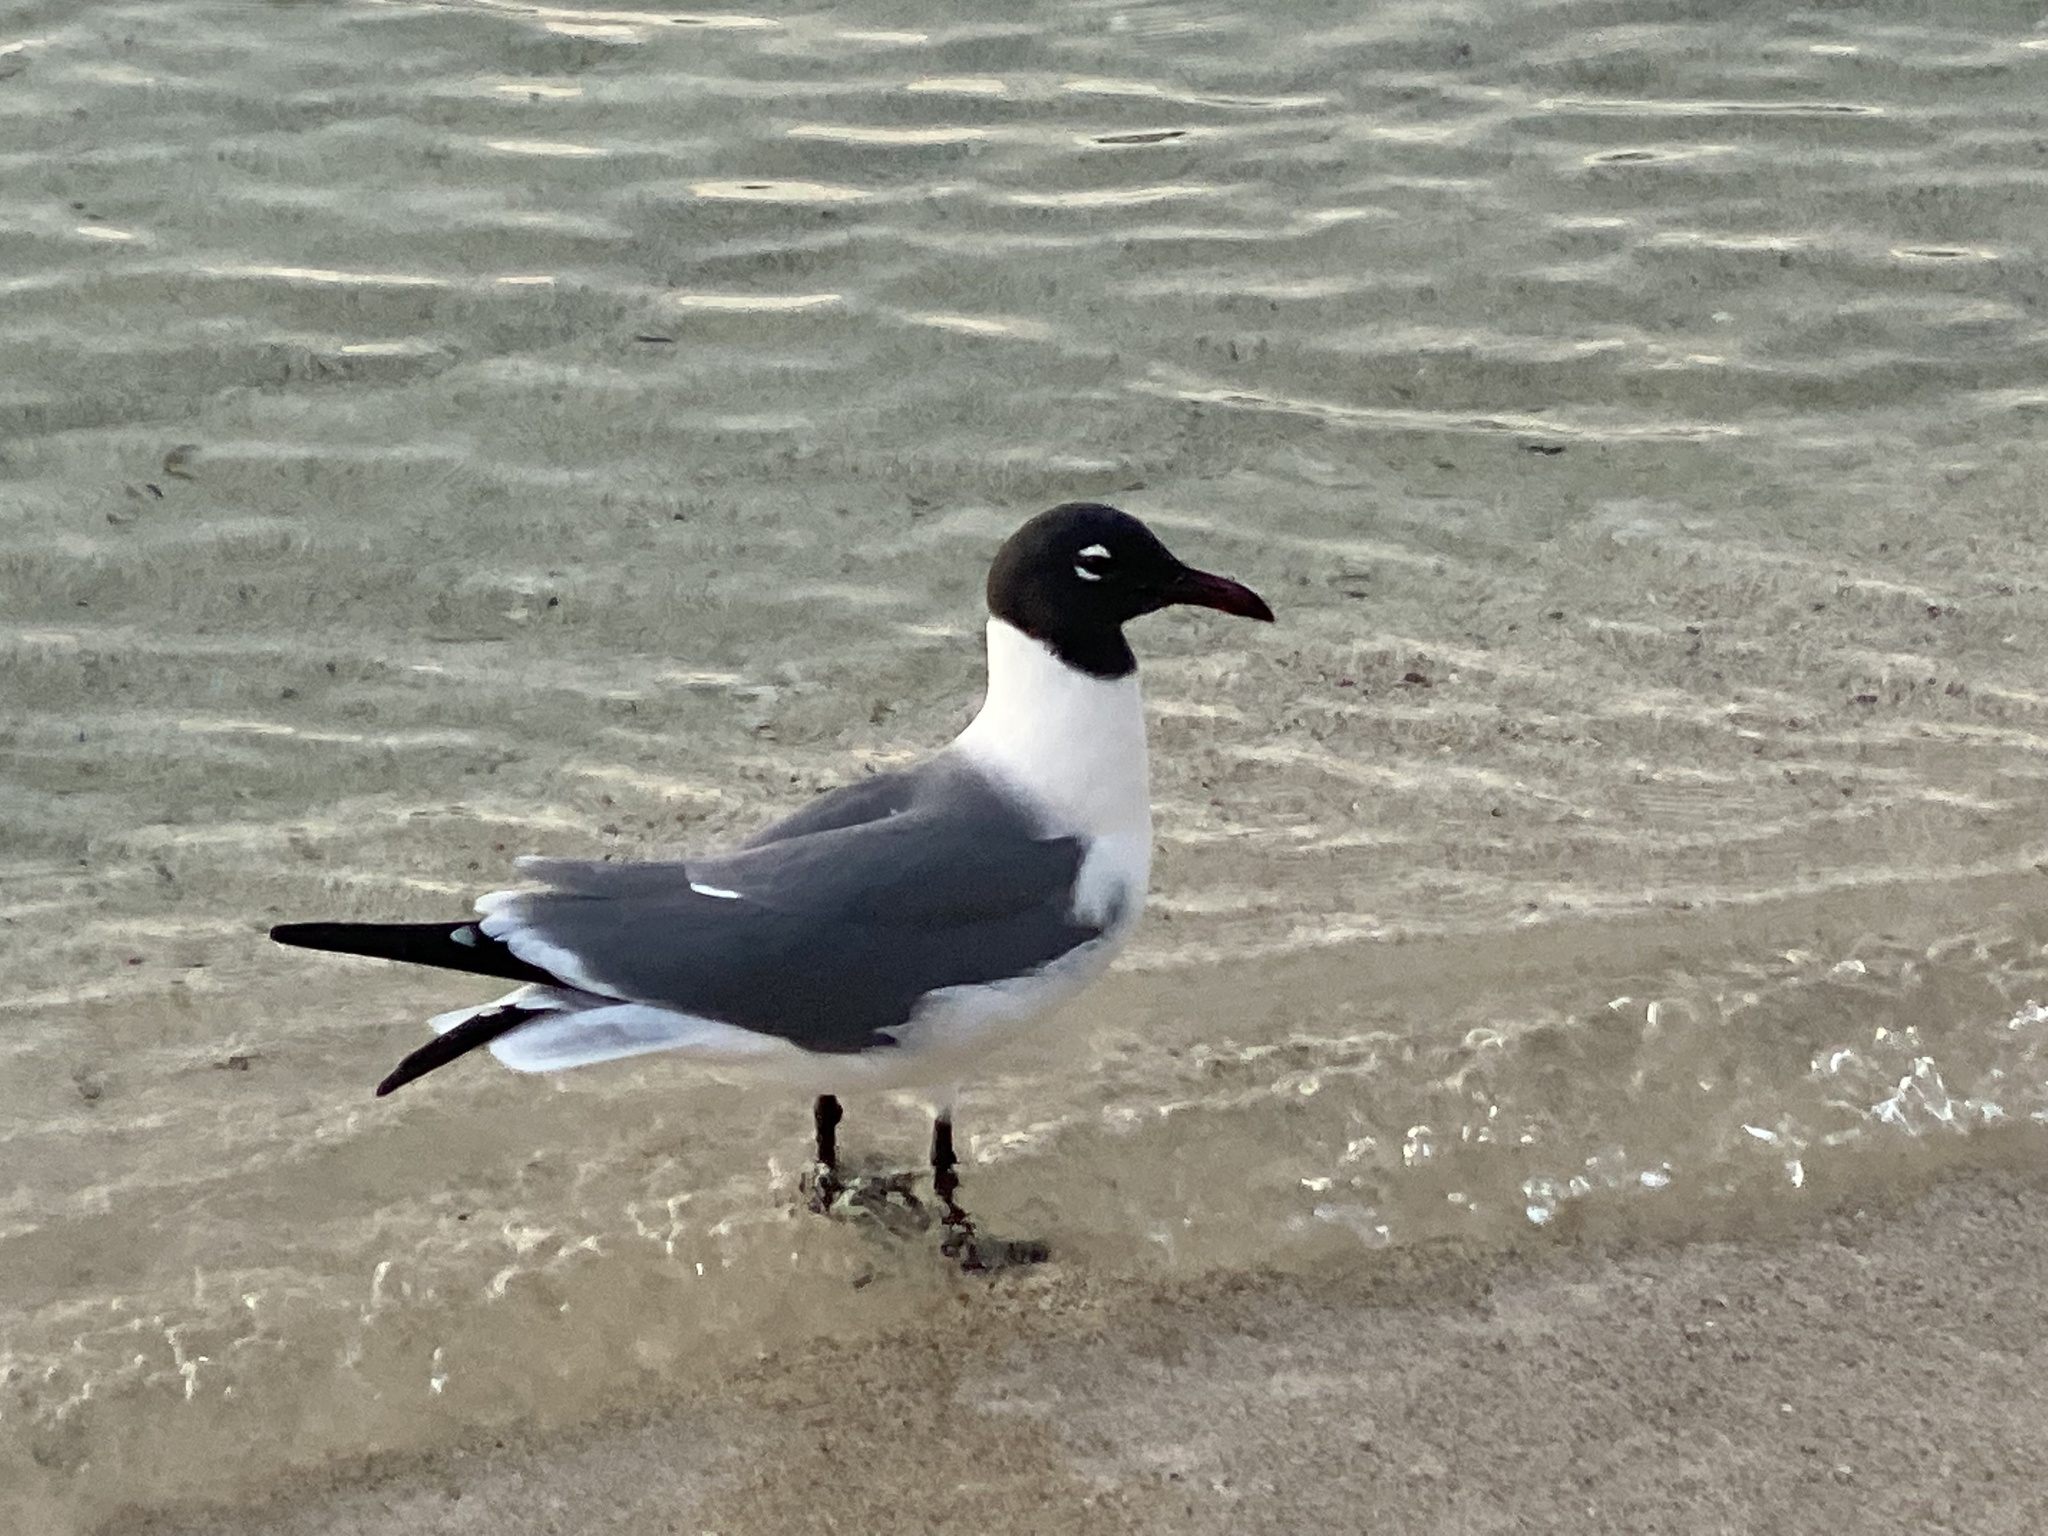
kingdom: Animalia
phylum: Chordata
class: Aves
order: Charadriiformes
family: Laridae
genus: Leucophaeus
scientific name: Leucophaeus atricilla
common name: Laughing gull
